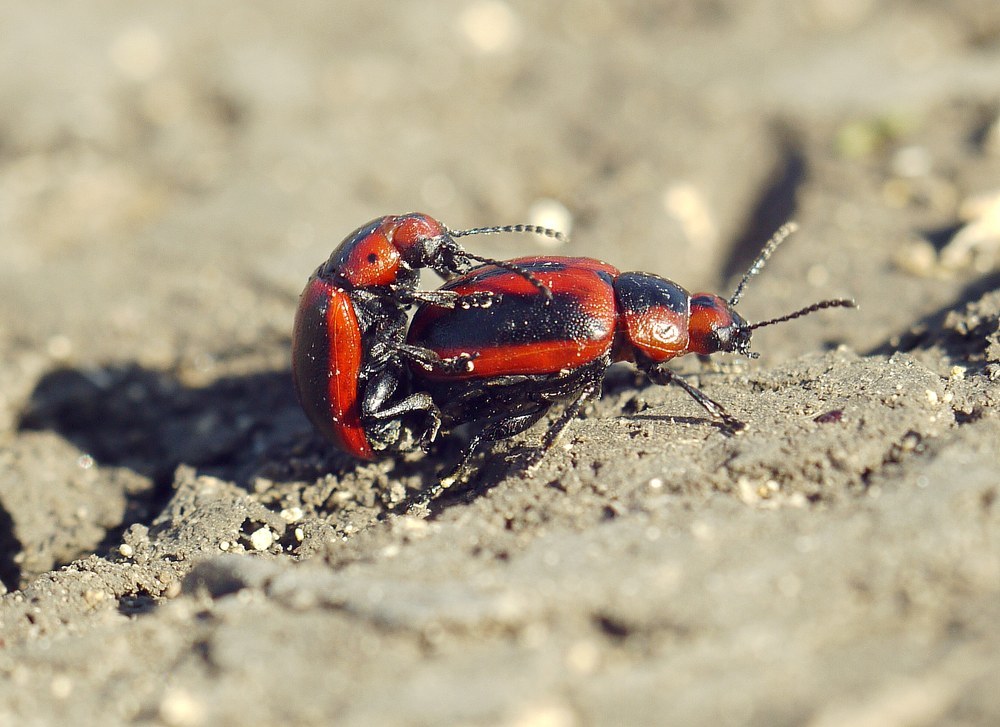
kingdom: Animalia
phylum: Arthropoda
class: Insecta
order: Coleoptera
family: Chrysomelidae
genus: Entomoscelis
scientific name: Entomoscelis adonidis
